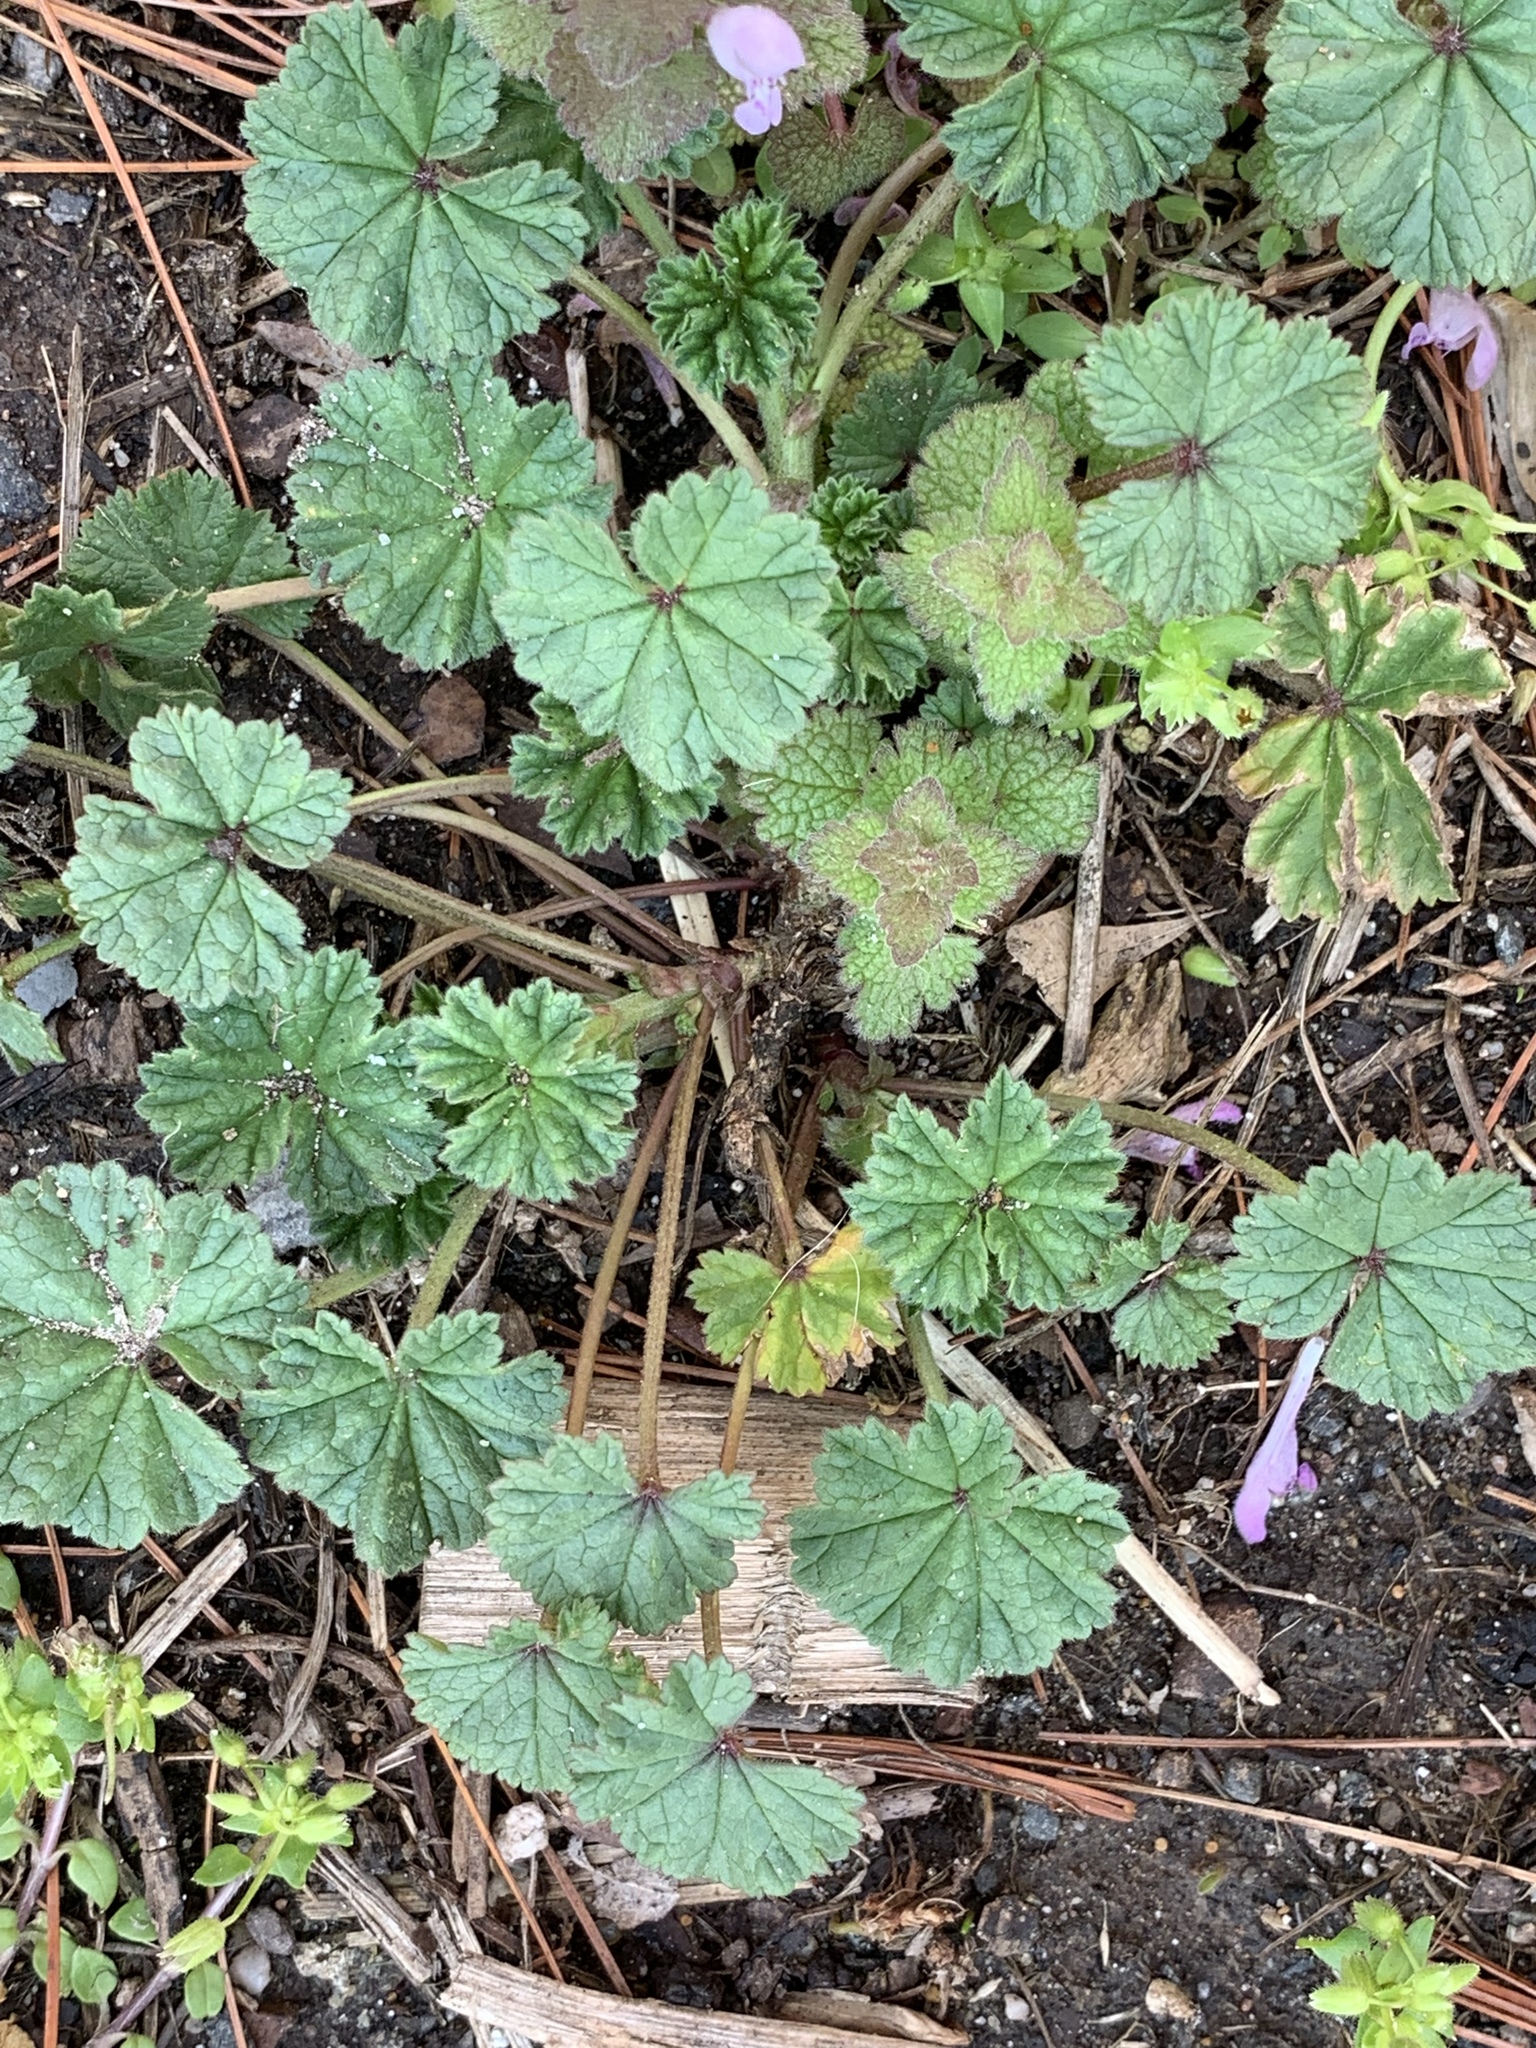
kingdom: Plantae
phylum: Tracheophyta
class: Magnoliopsida
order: Malvales
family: Malvaceae
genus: Malva
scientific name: Malva neglecta
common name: Common mallow
